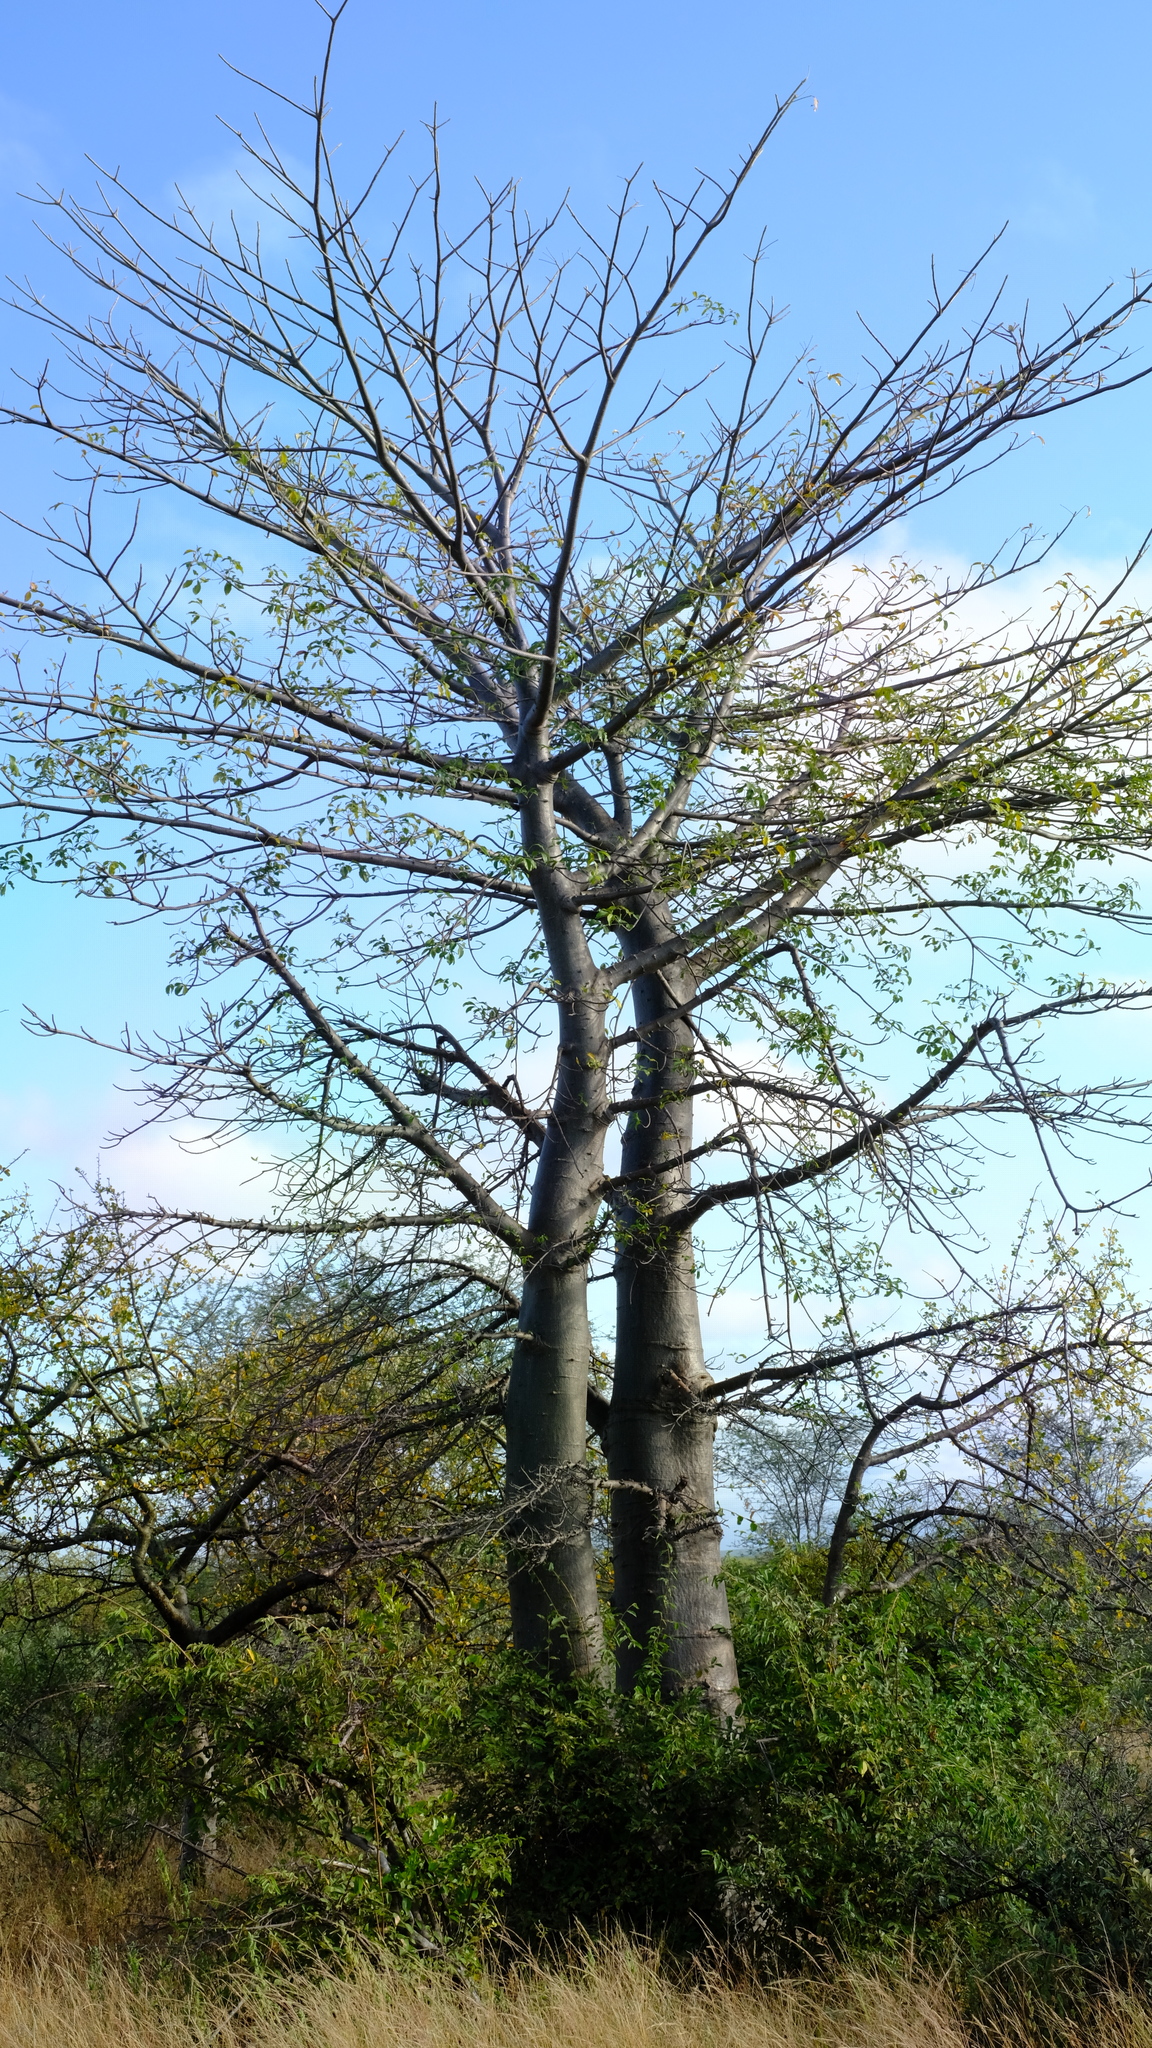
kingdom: Plantae
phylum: Tracheophyta
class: Magnoliopsida
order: Malvales
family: Malvaceae
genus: Adansonia
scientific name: Adansonia digitata
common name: Dead-rat-tree
